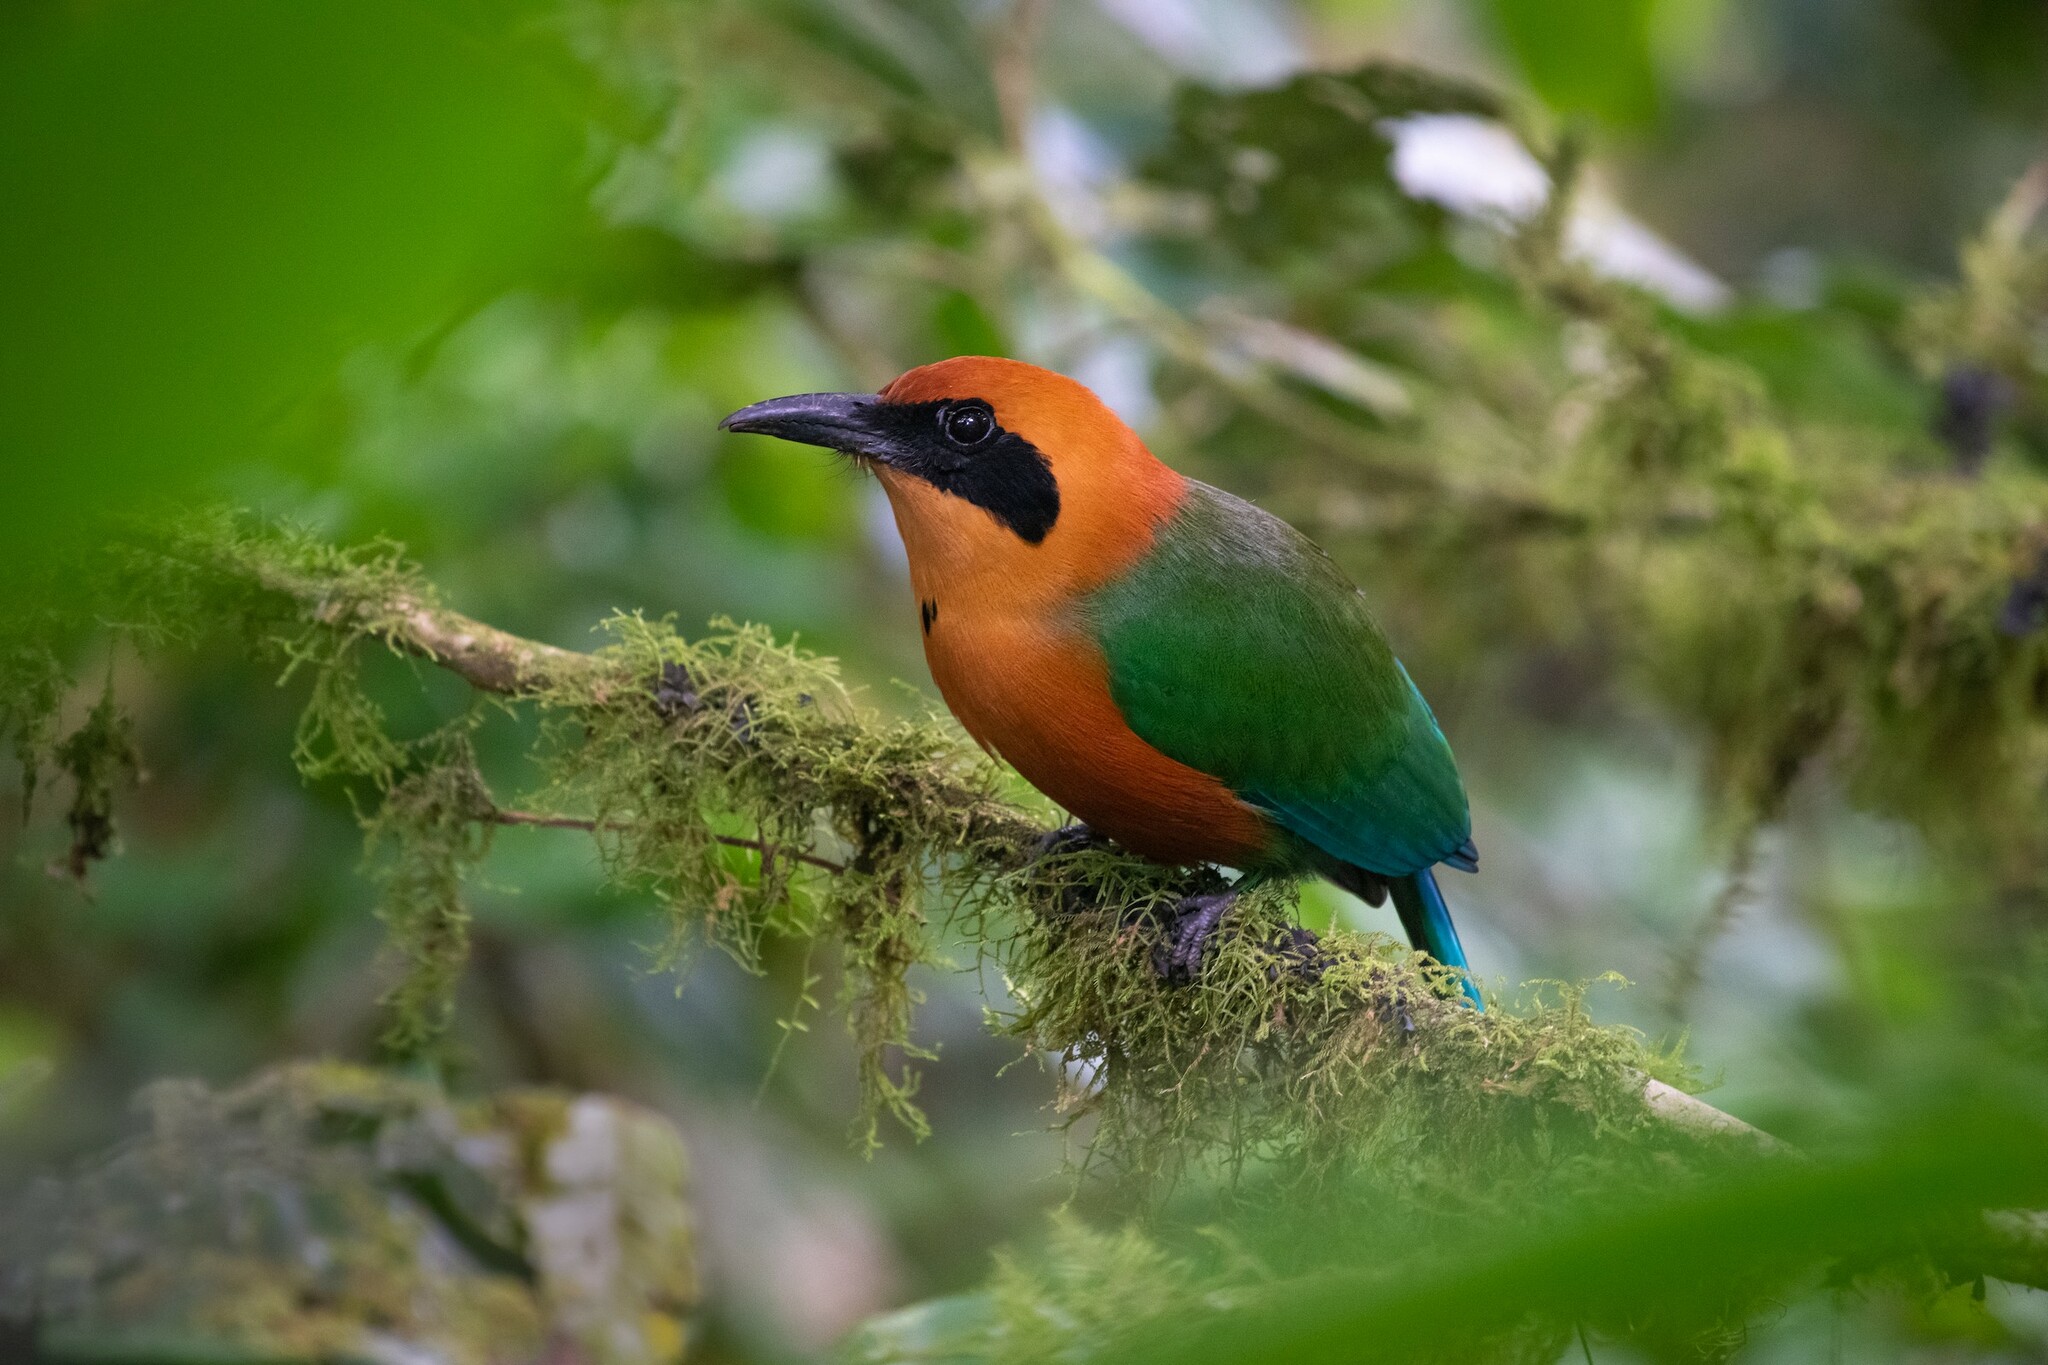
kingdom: Animalia
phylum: Chordata
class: Aves
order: Coraciiformes
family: Momotidae
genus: Baryphthengus
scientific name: Baryphthengus martii
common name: Rufous motmot
